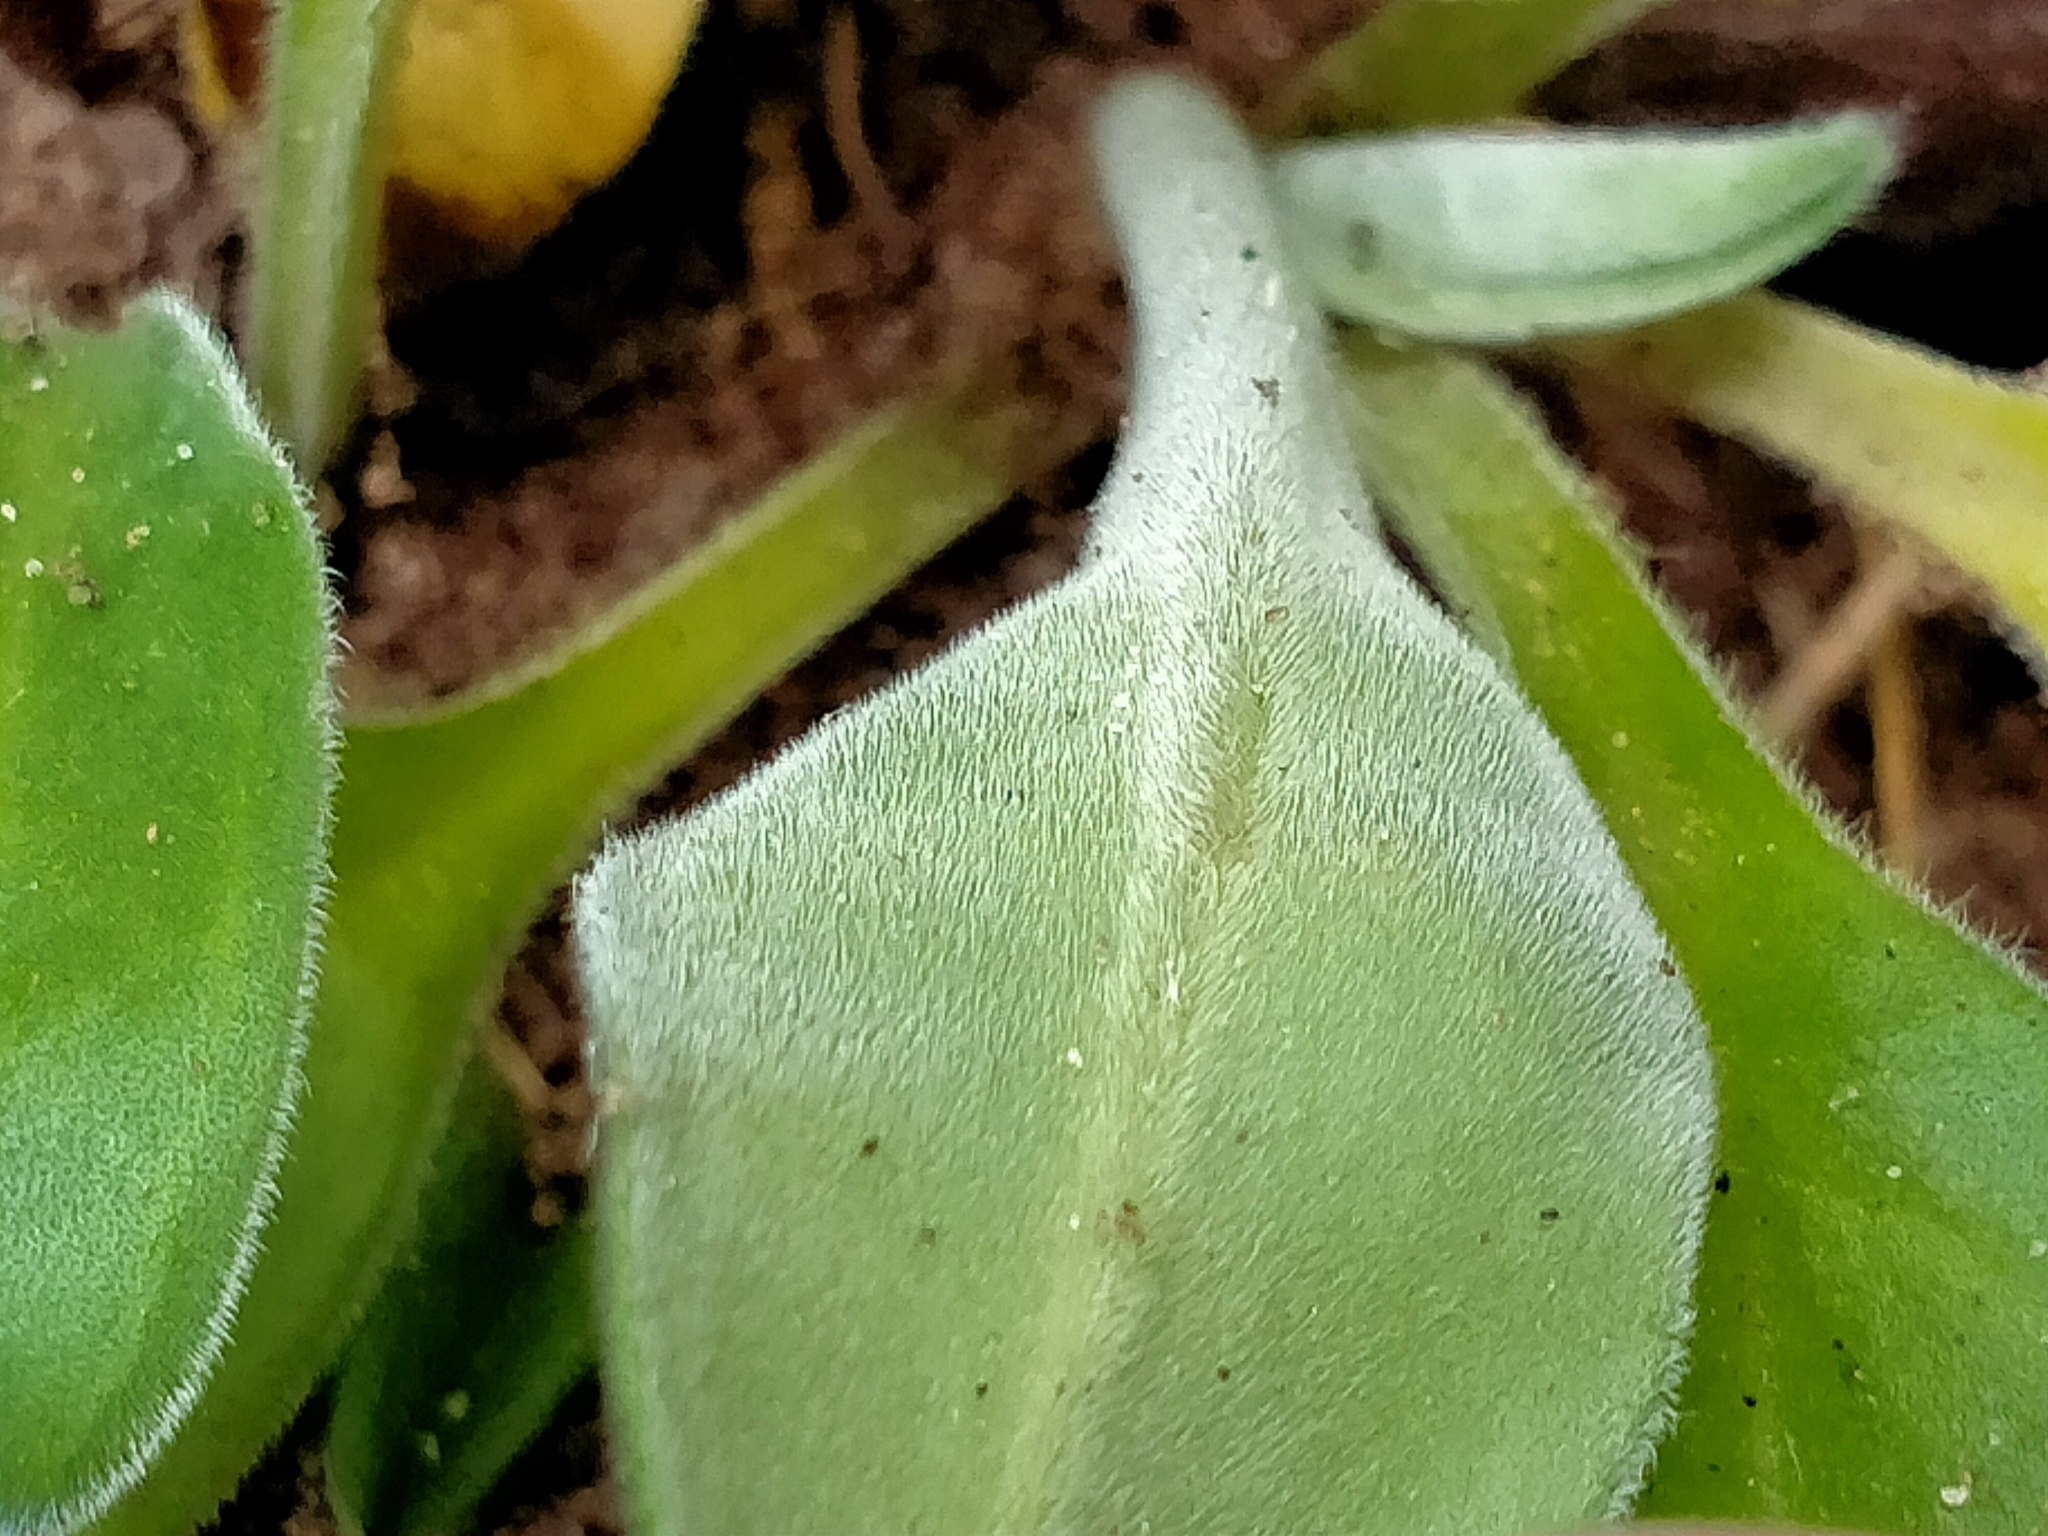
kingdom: Plantae
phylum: Tracheophyta
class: Magnoliopsida
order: Boraginales
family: Boraginaceae
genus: Myosotis
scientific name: Myosotis rakiura
